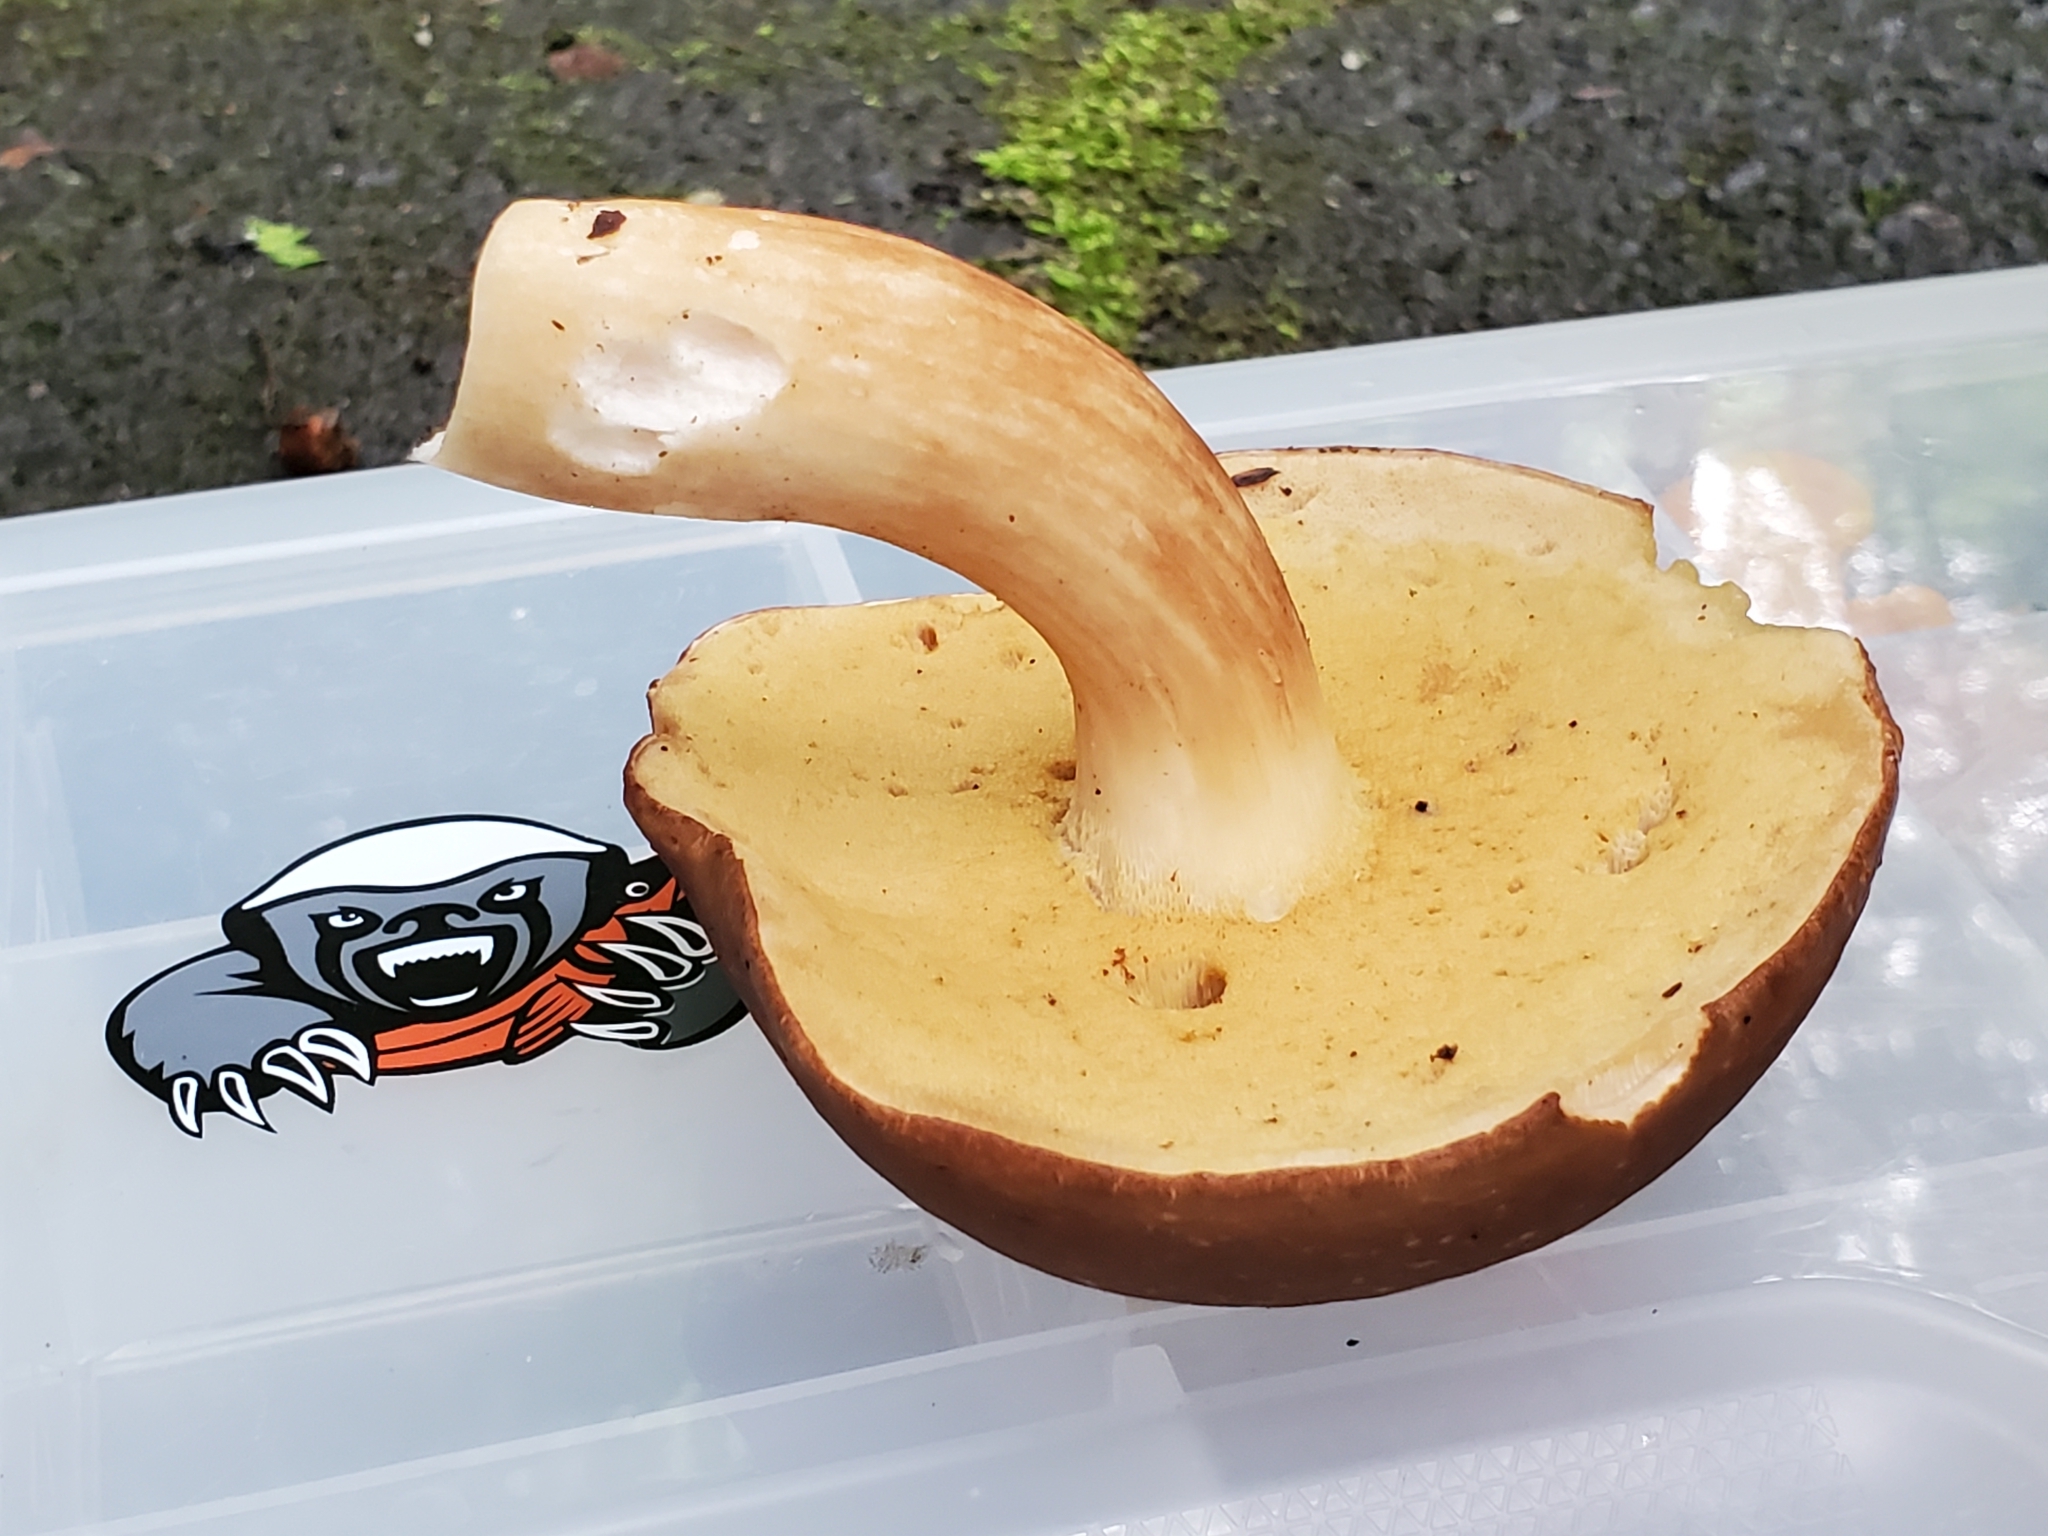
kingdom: Fungi
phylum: Basidiomycota
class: Agaricomycetes
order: Boletales
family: Boletaceae
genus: Xanthoconium
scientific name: Xanthoconium affine
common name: Spotted bolete
